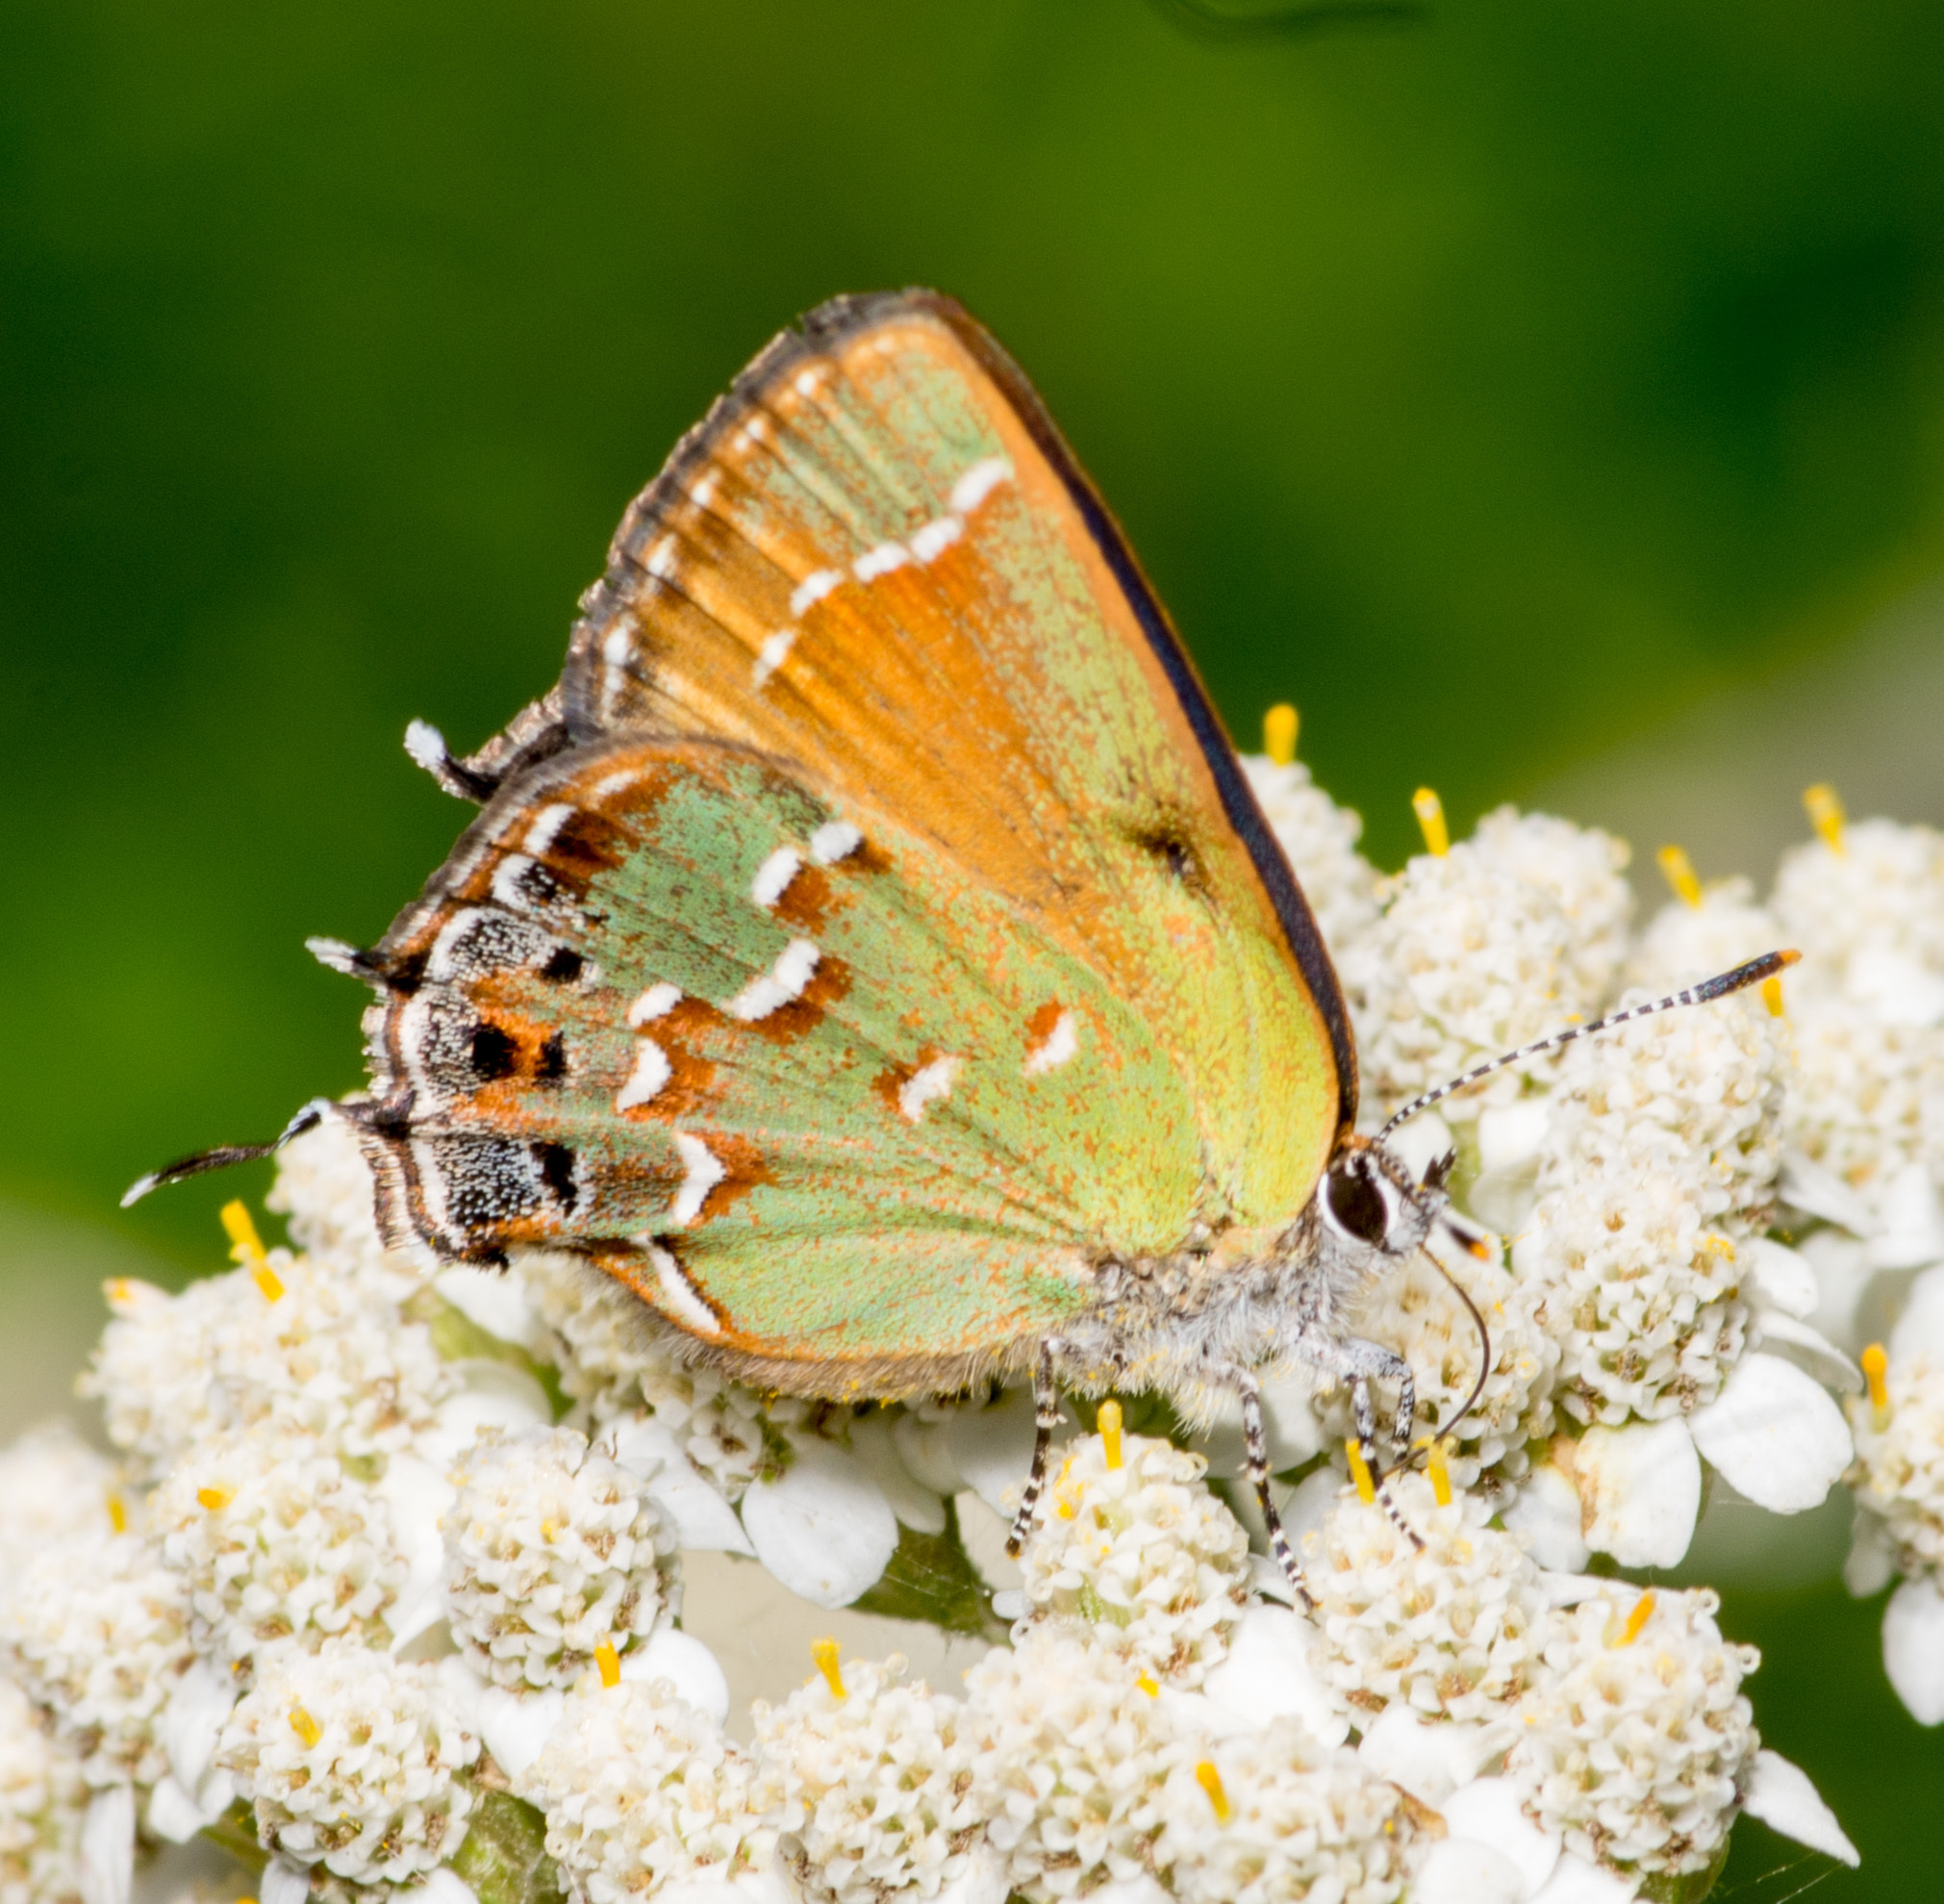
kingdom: Animalia
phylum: Arthropoda
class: Insecta
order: Lepidoptera
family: Lycaenidae
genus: Mitoura
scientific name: Mitoura gryneus
